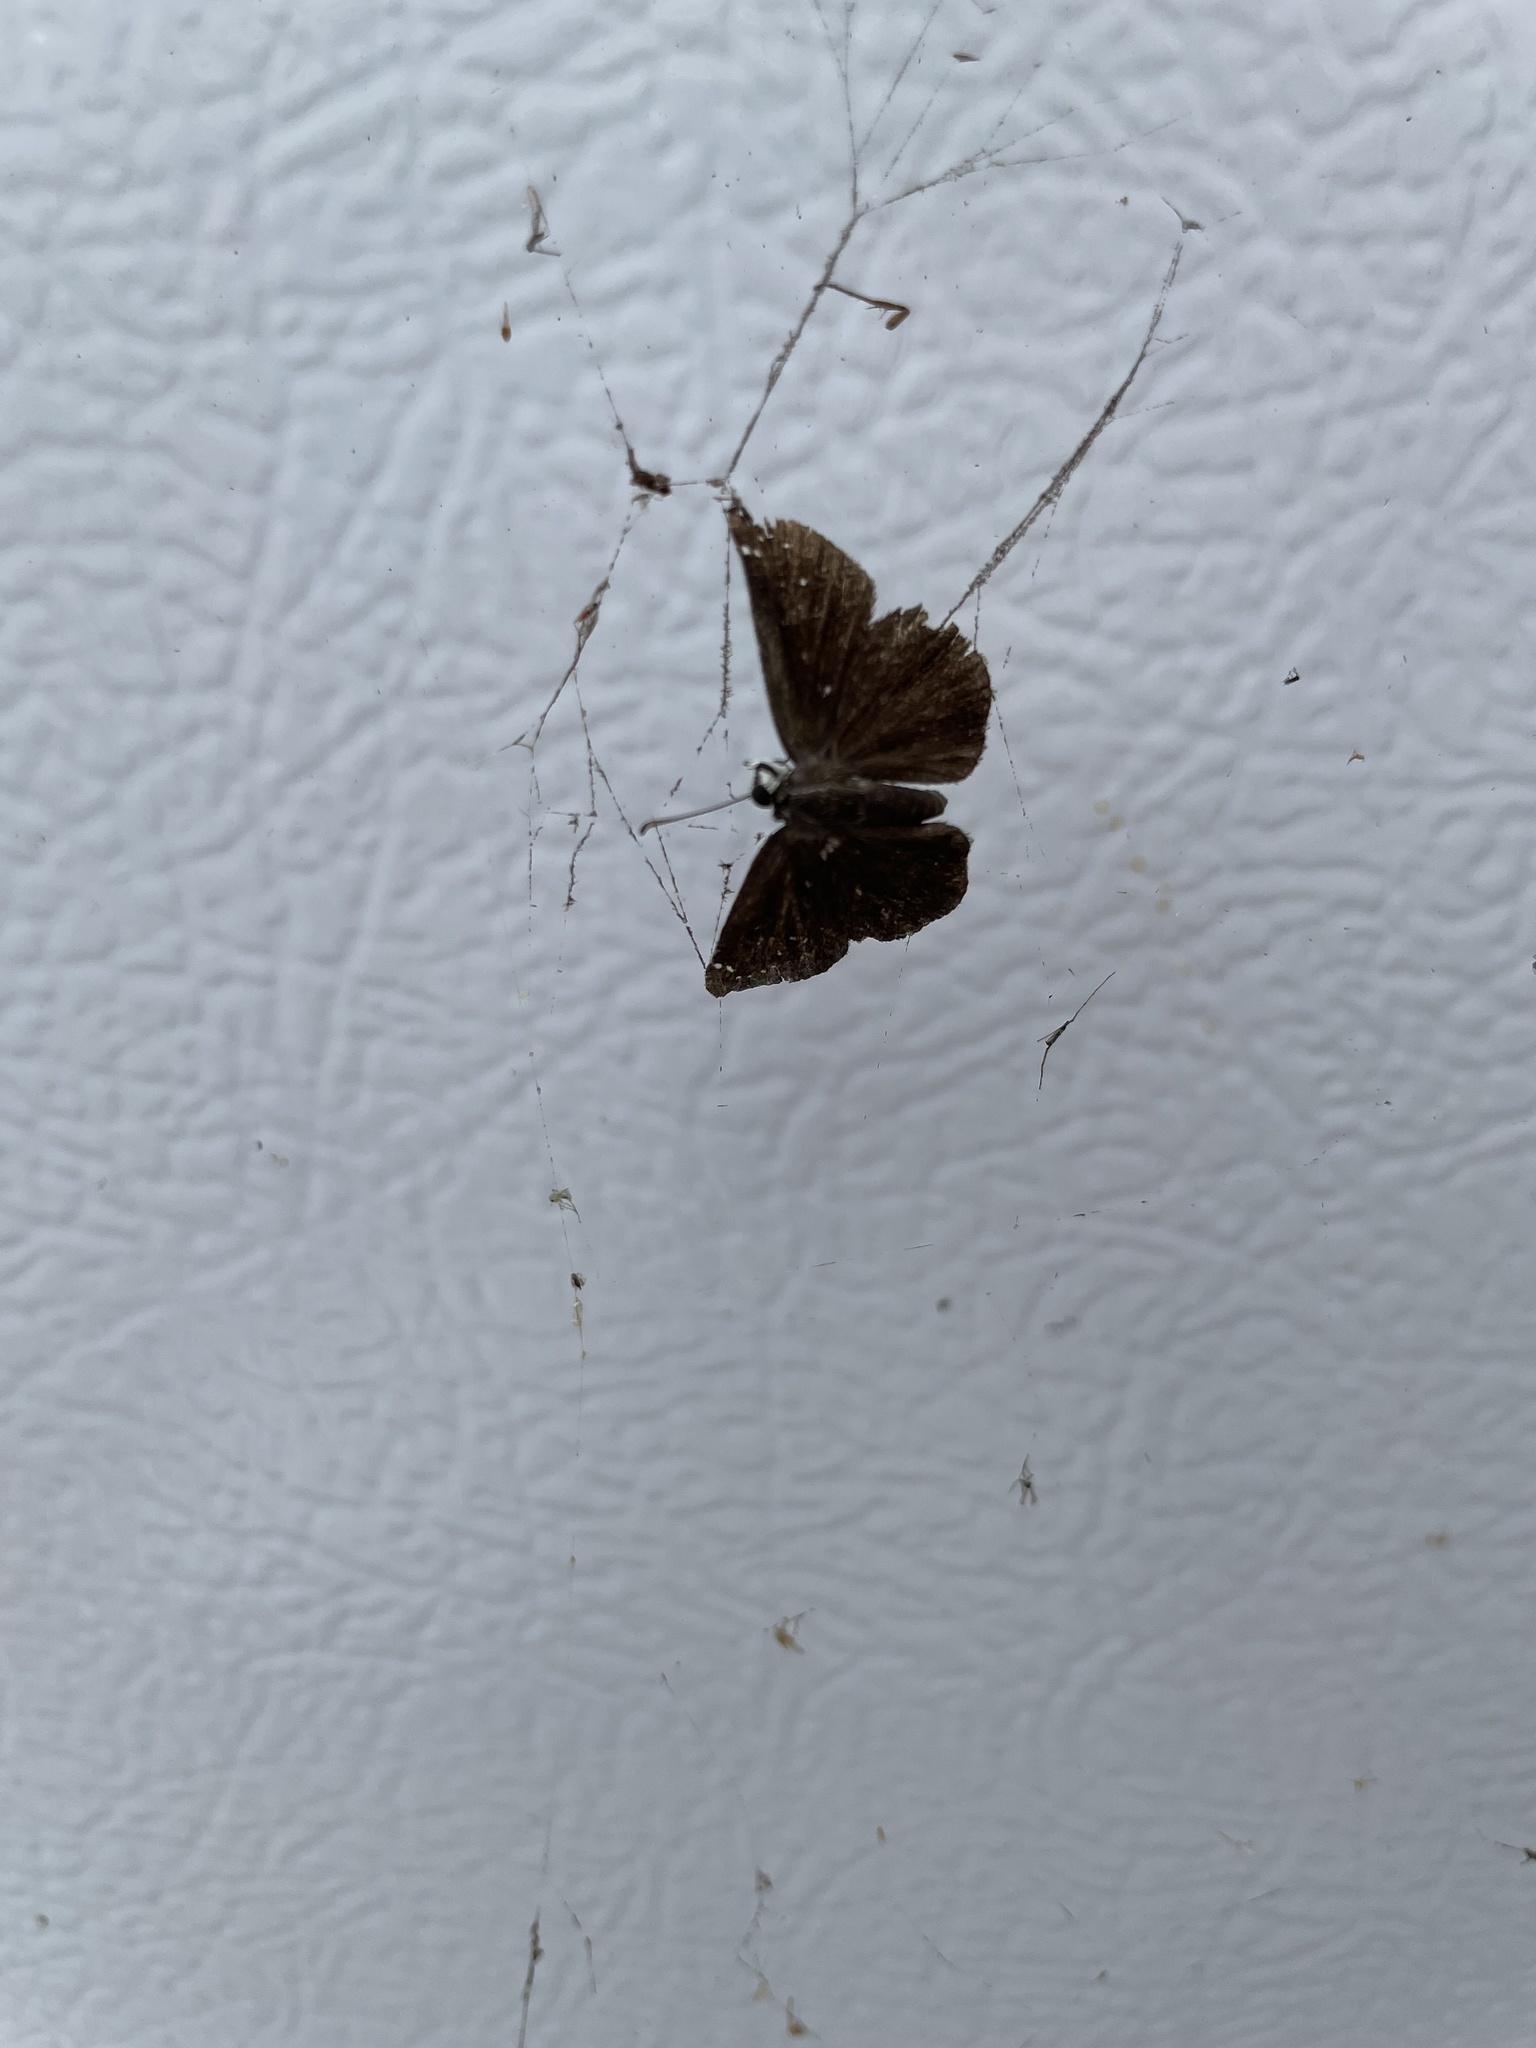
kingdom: Animalia
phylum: Arthropoda
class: Insecta
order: Lepidoptera
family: Hesperiidae
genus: Pholisora
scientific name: Pholisora catullus
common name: Common sootywing
